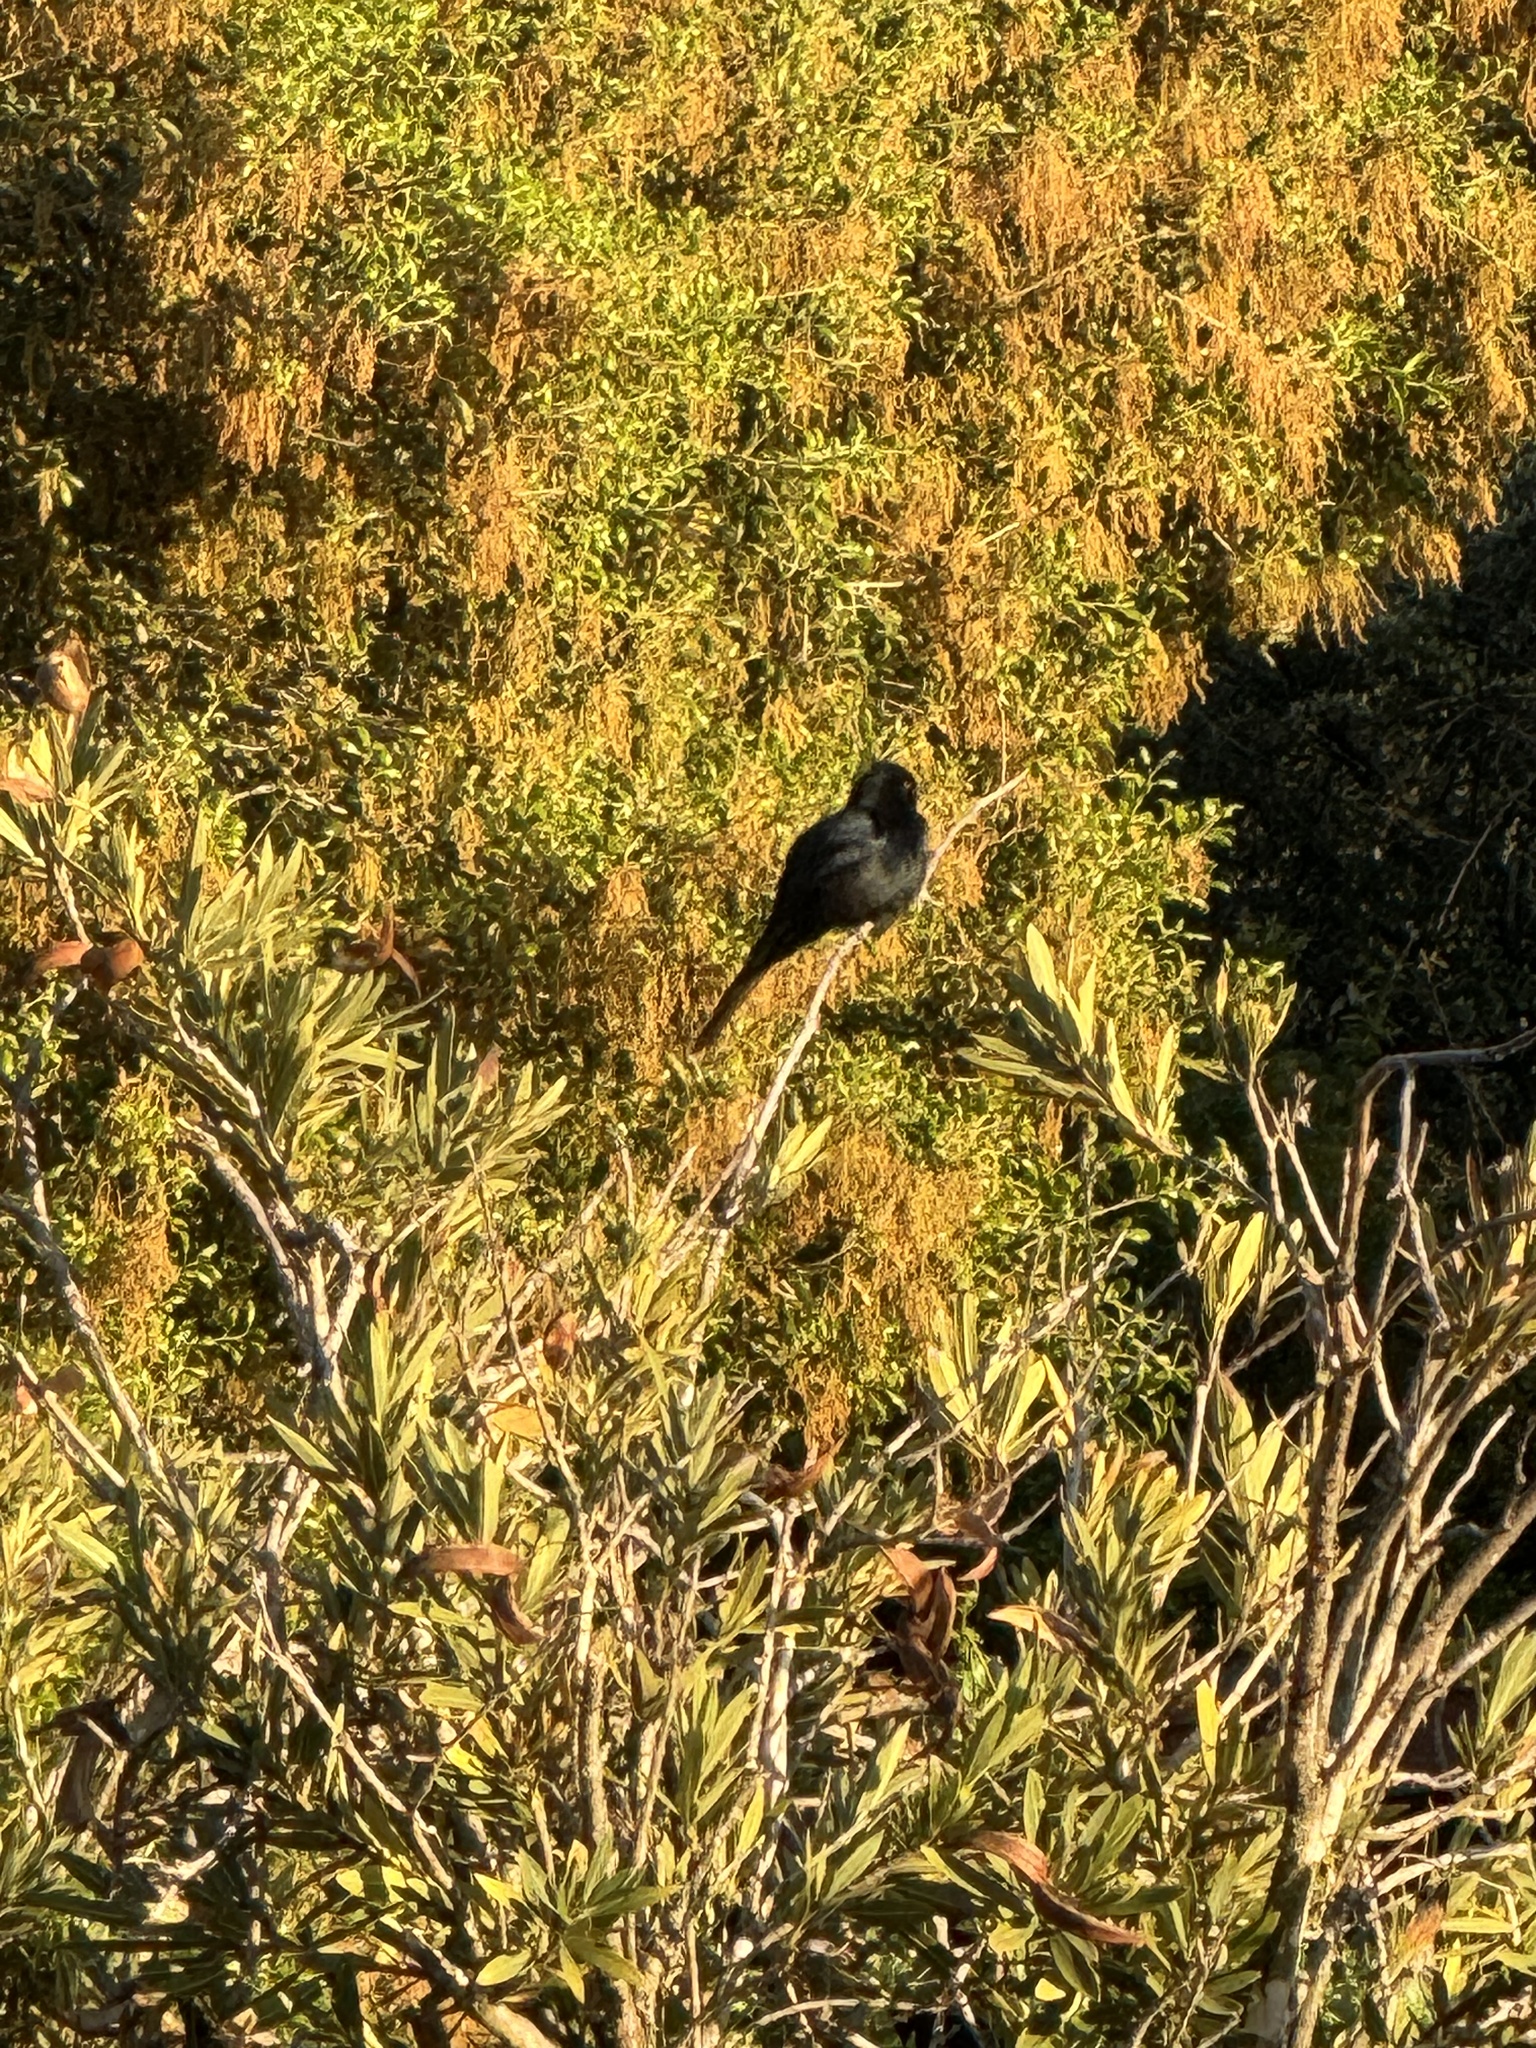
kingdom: Animalia
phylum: Chordata
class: Aves
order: Passeriformes
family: Ptilogonatidae
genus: Phainopepla
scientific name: Phainopepla nitens
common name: Phainopepla
